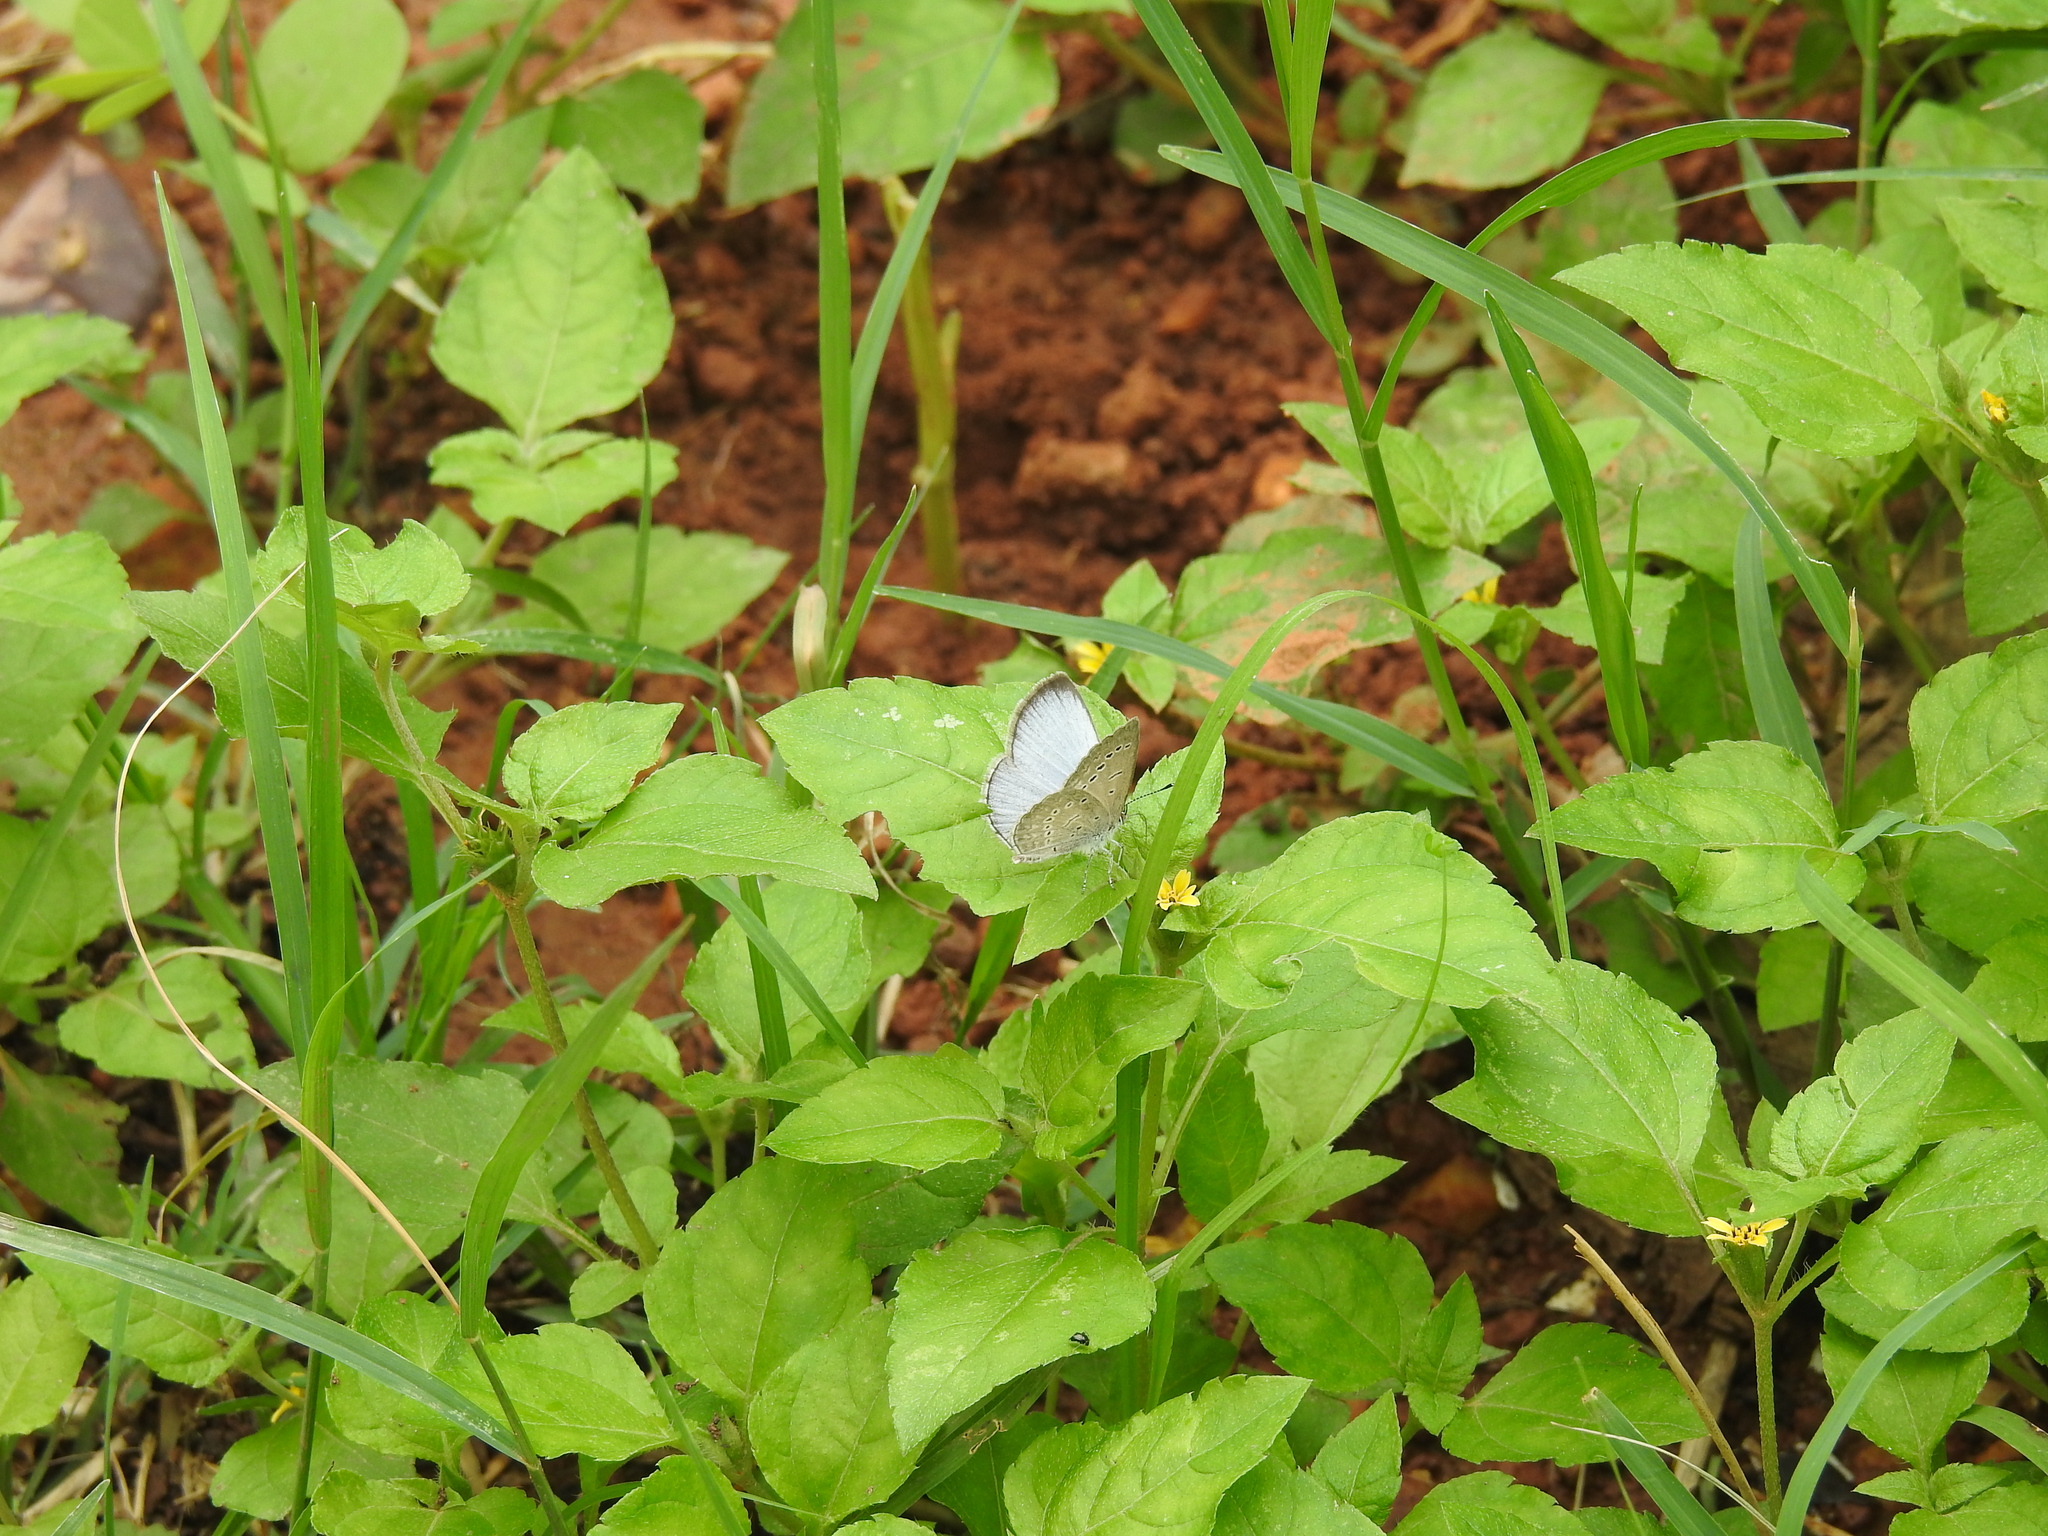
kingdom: Animalia
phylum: Arthropoda
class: Insecta
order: Lepidoptera
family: Lycaenidae
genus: Pseudozizeeria
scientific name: Pseudozizeeria maha
